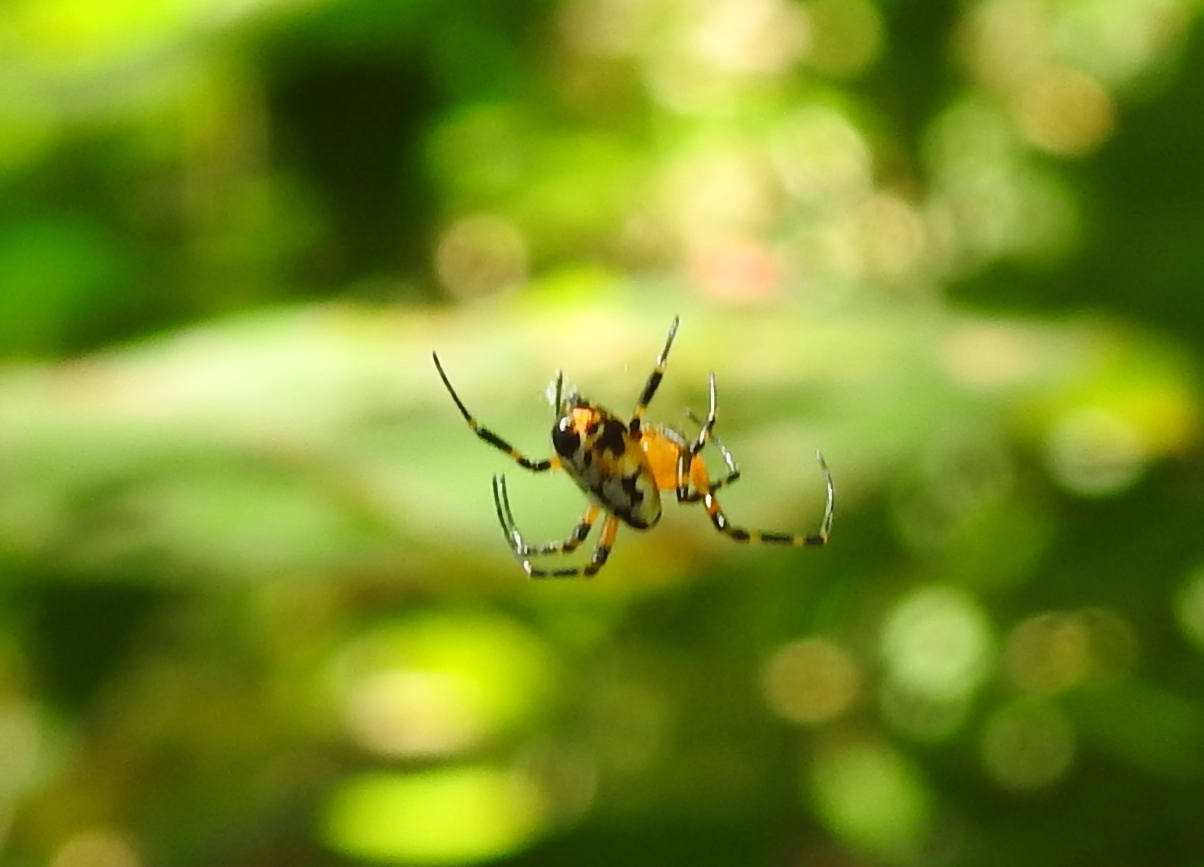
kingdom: Animalia
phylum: Arthropoda
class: Arachnida
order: Araneae
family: Tetragnathidae
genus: Leucauge
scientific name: Leucauge fastigata
